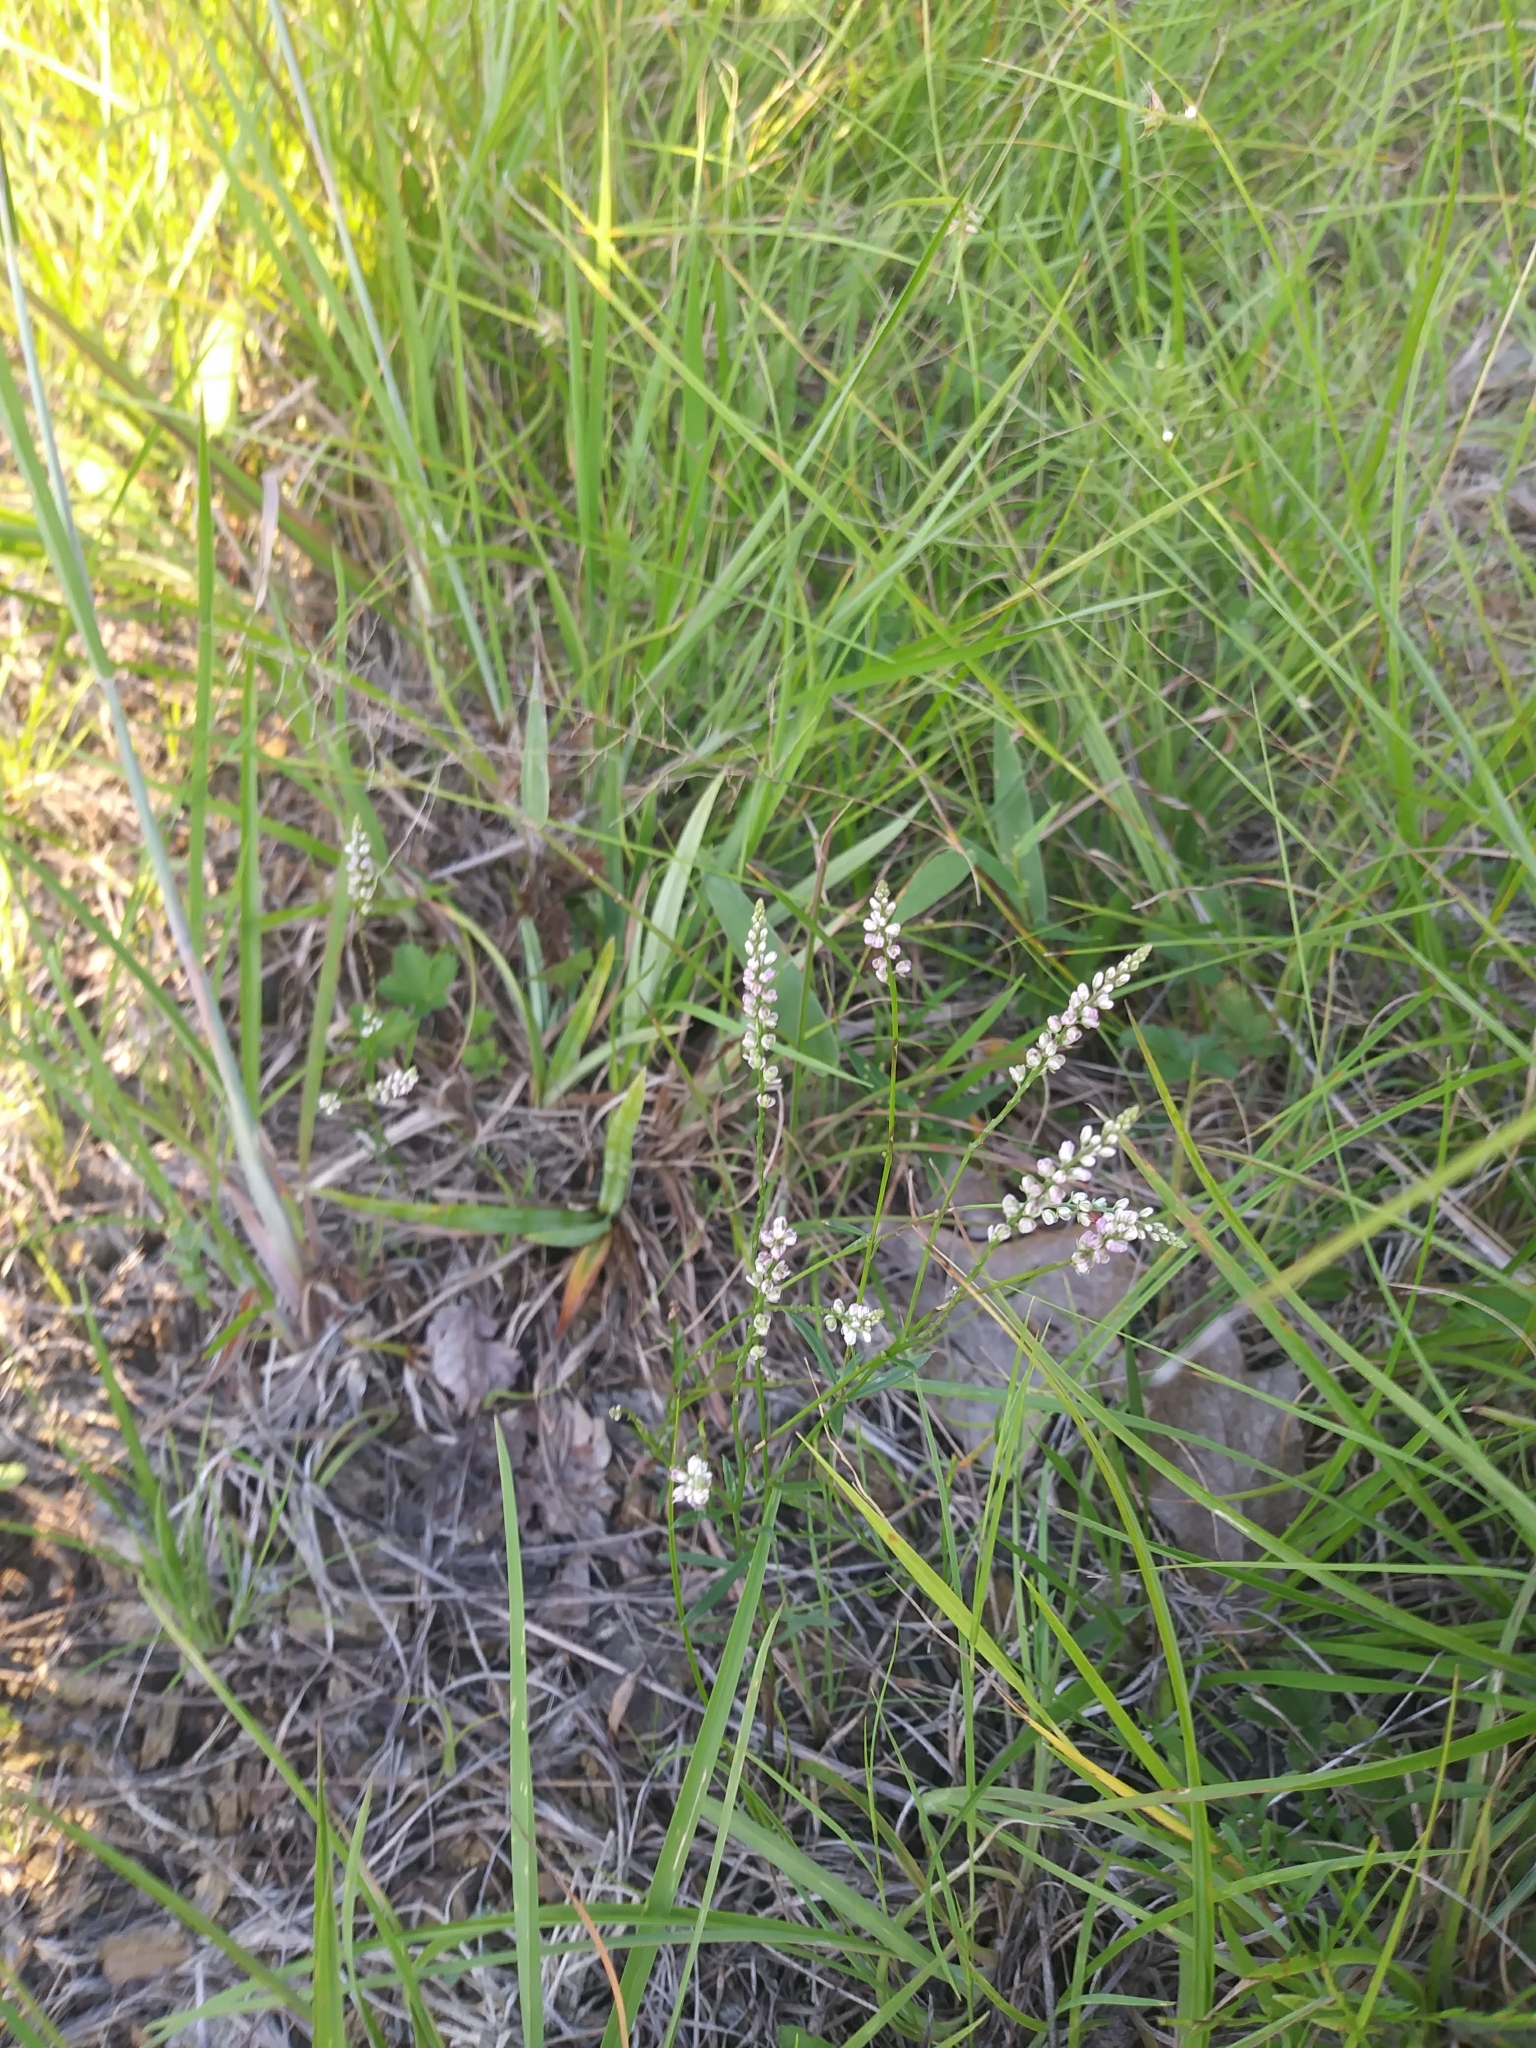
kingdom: Plantae
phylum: Tracheophyta
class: Magnoliopsida
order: Fabales
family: Polygalaceae
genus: Polygala
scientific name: Polygala verticillata
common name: Whorl milkwort
